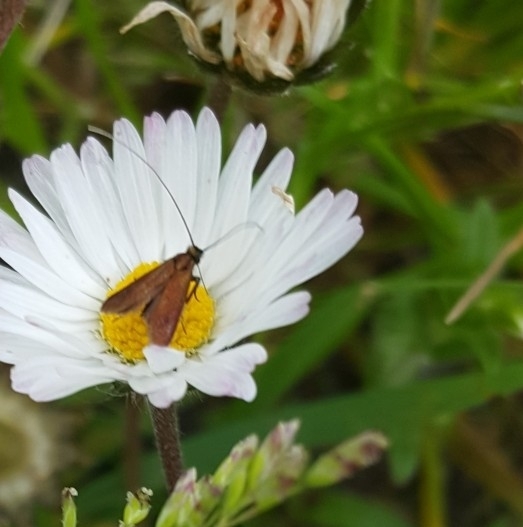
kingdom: Animalia
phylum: Arthropoda
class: Insecta
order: Lepidoptera
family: Adelidae
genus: Adela
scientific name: Adela violella
